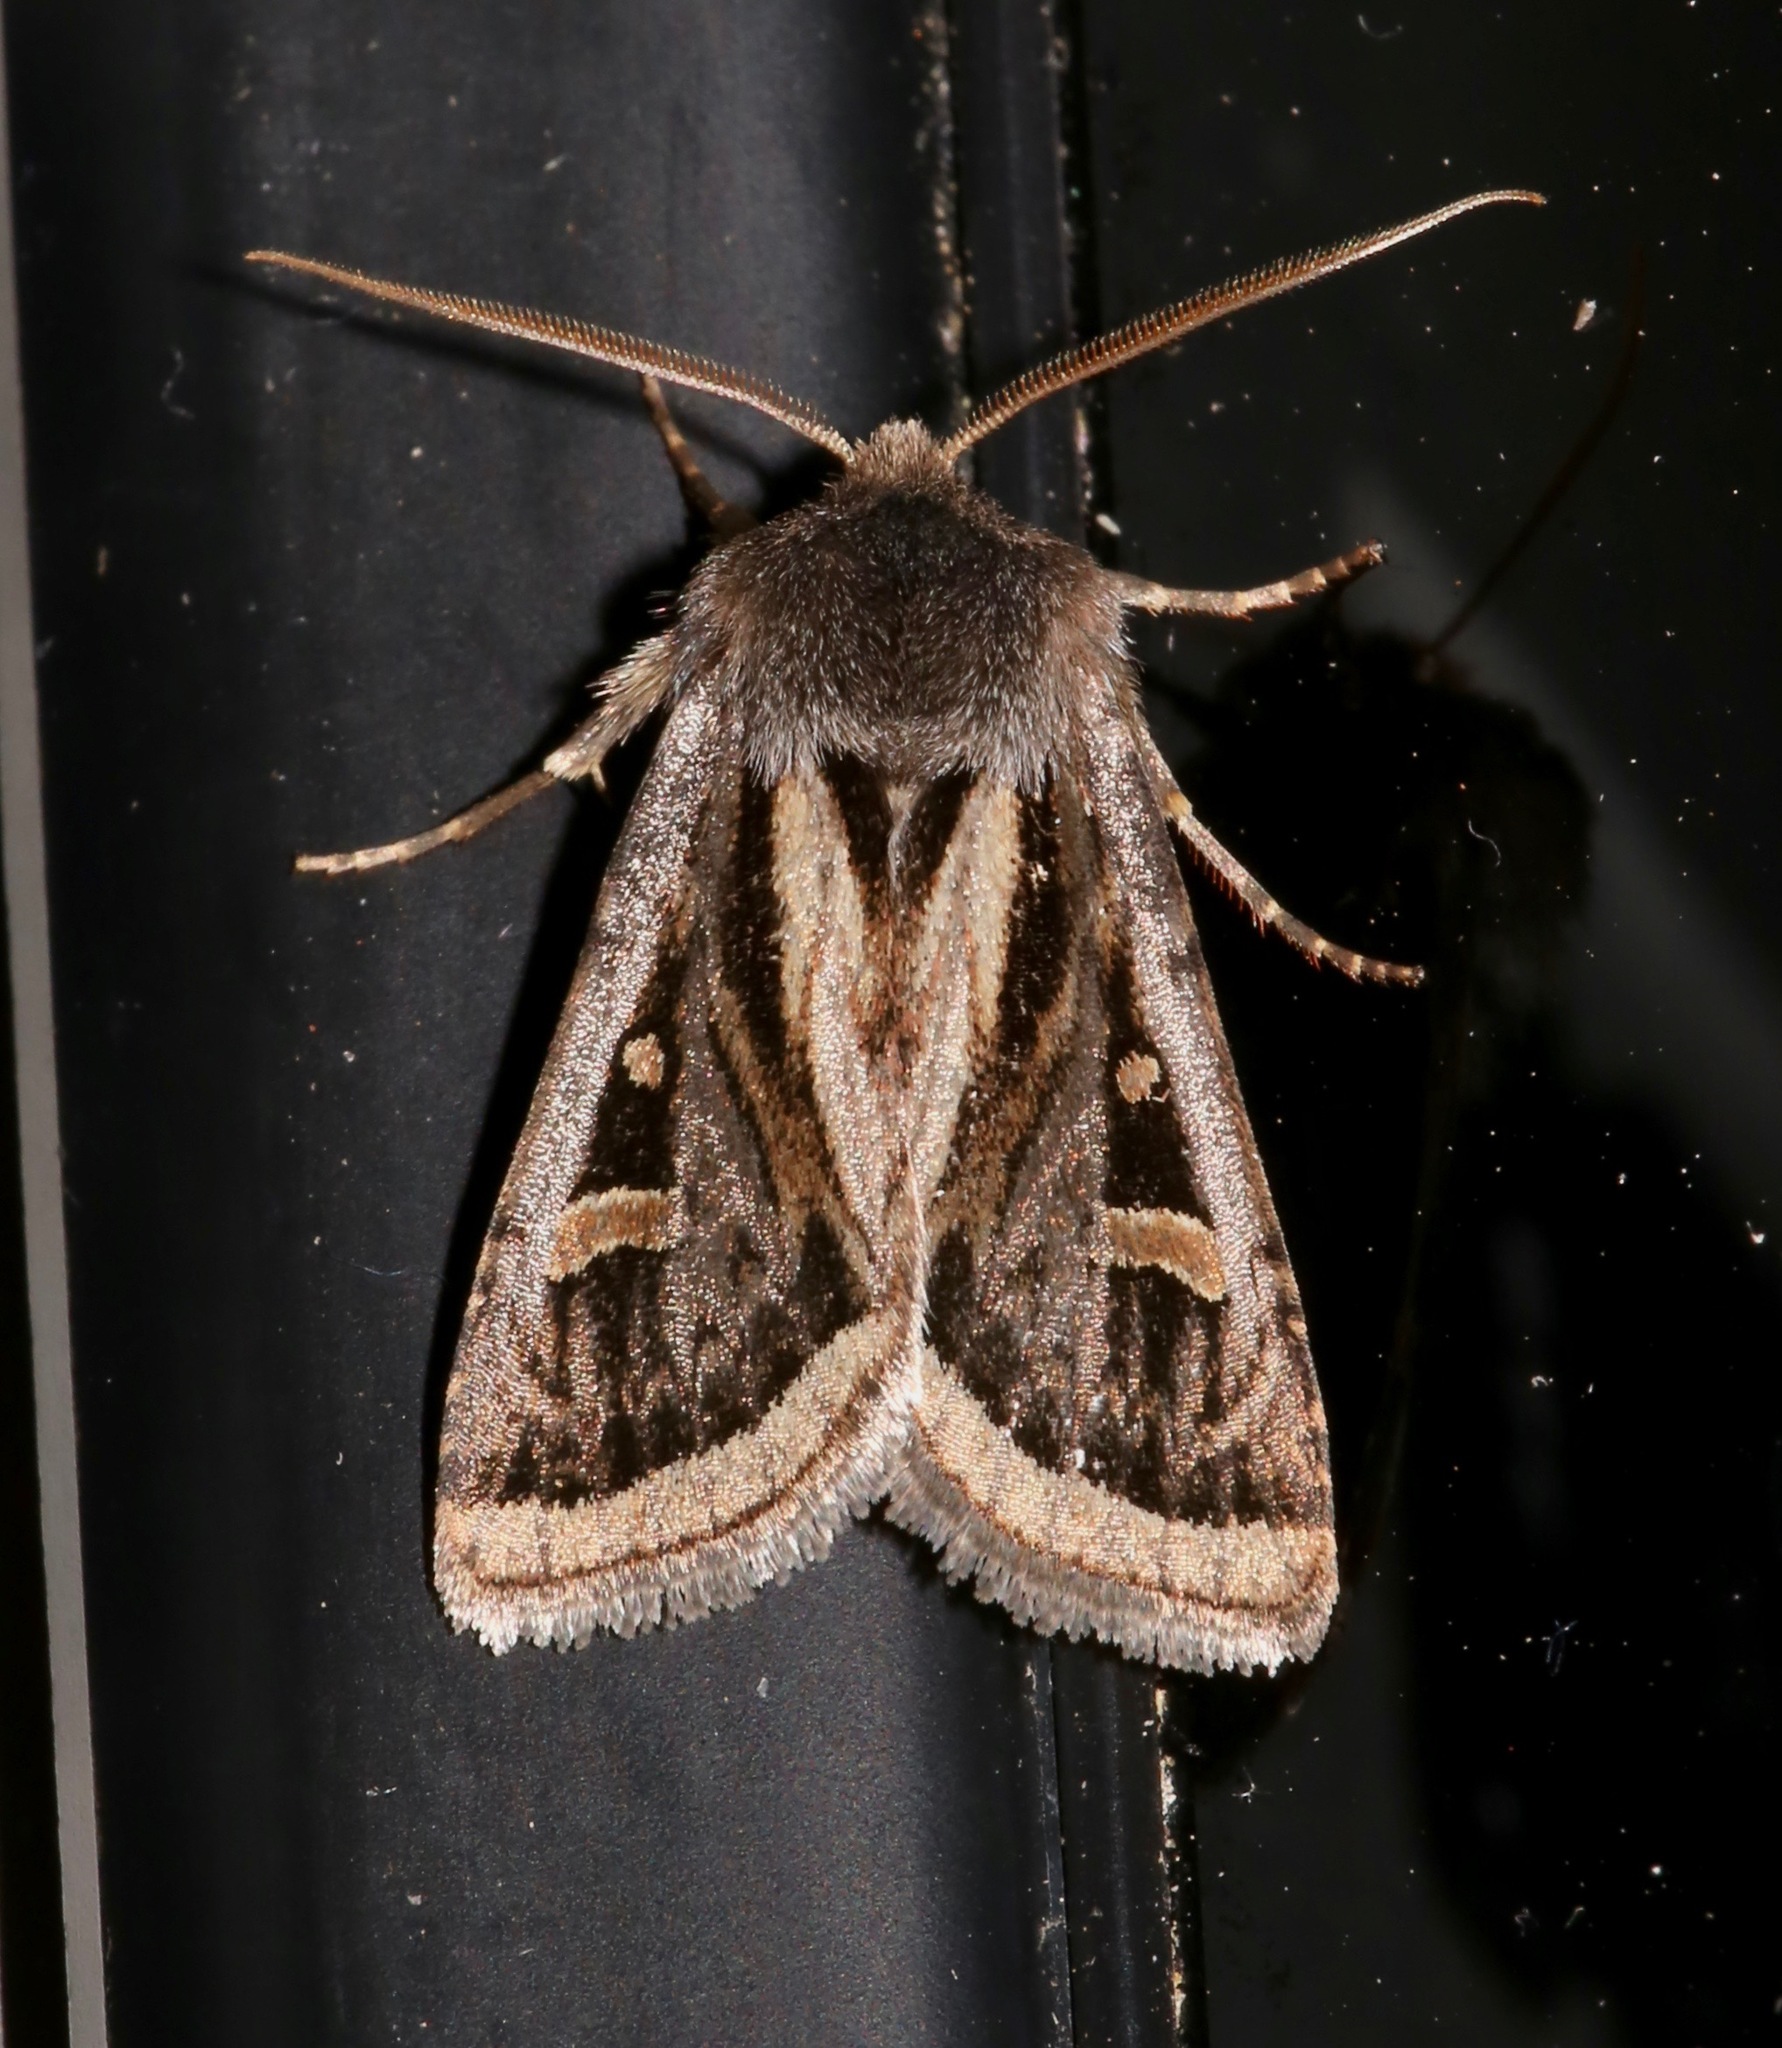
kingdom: Animalia
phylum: Arthropoda
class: Insecta
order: Lepidoptera
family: Noctuidae
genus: Trichofeltia
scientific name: Trichofeltia circumdata
